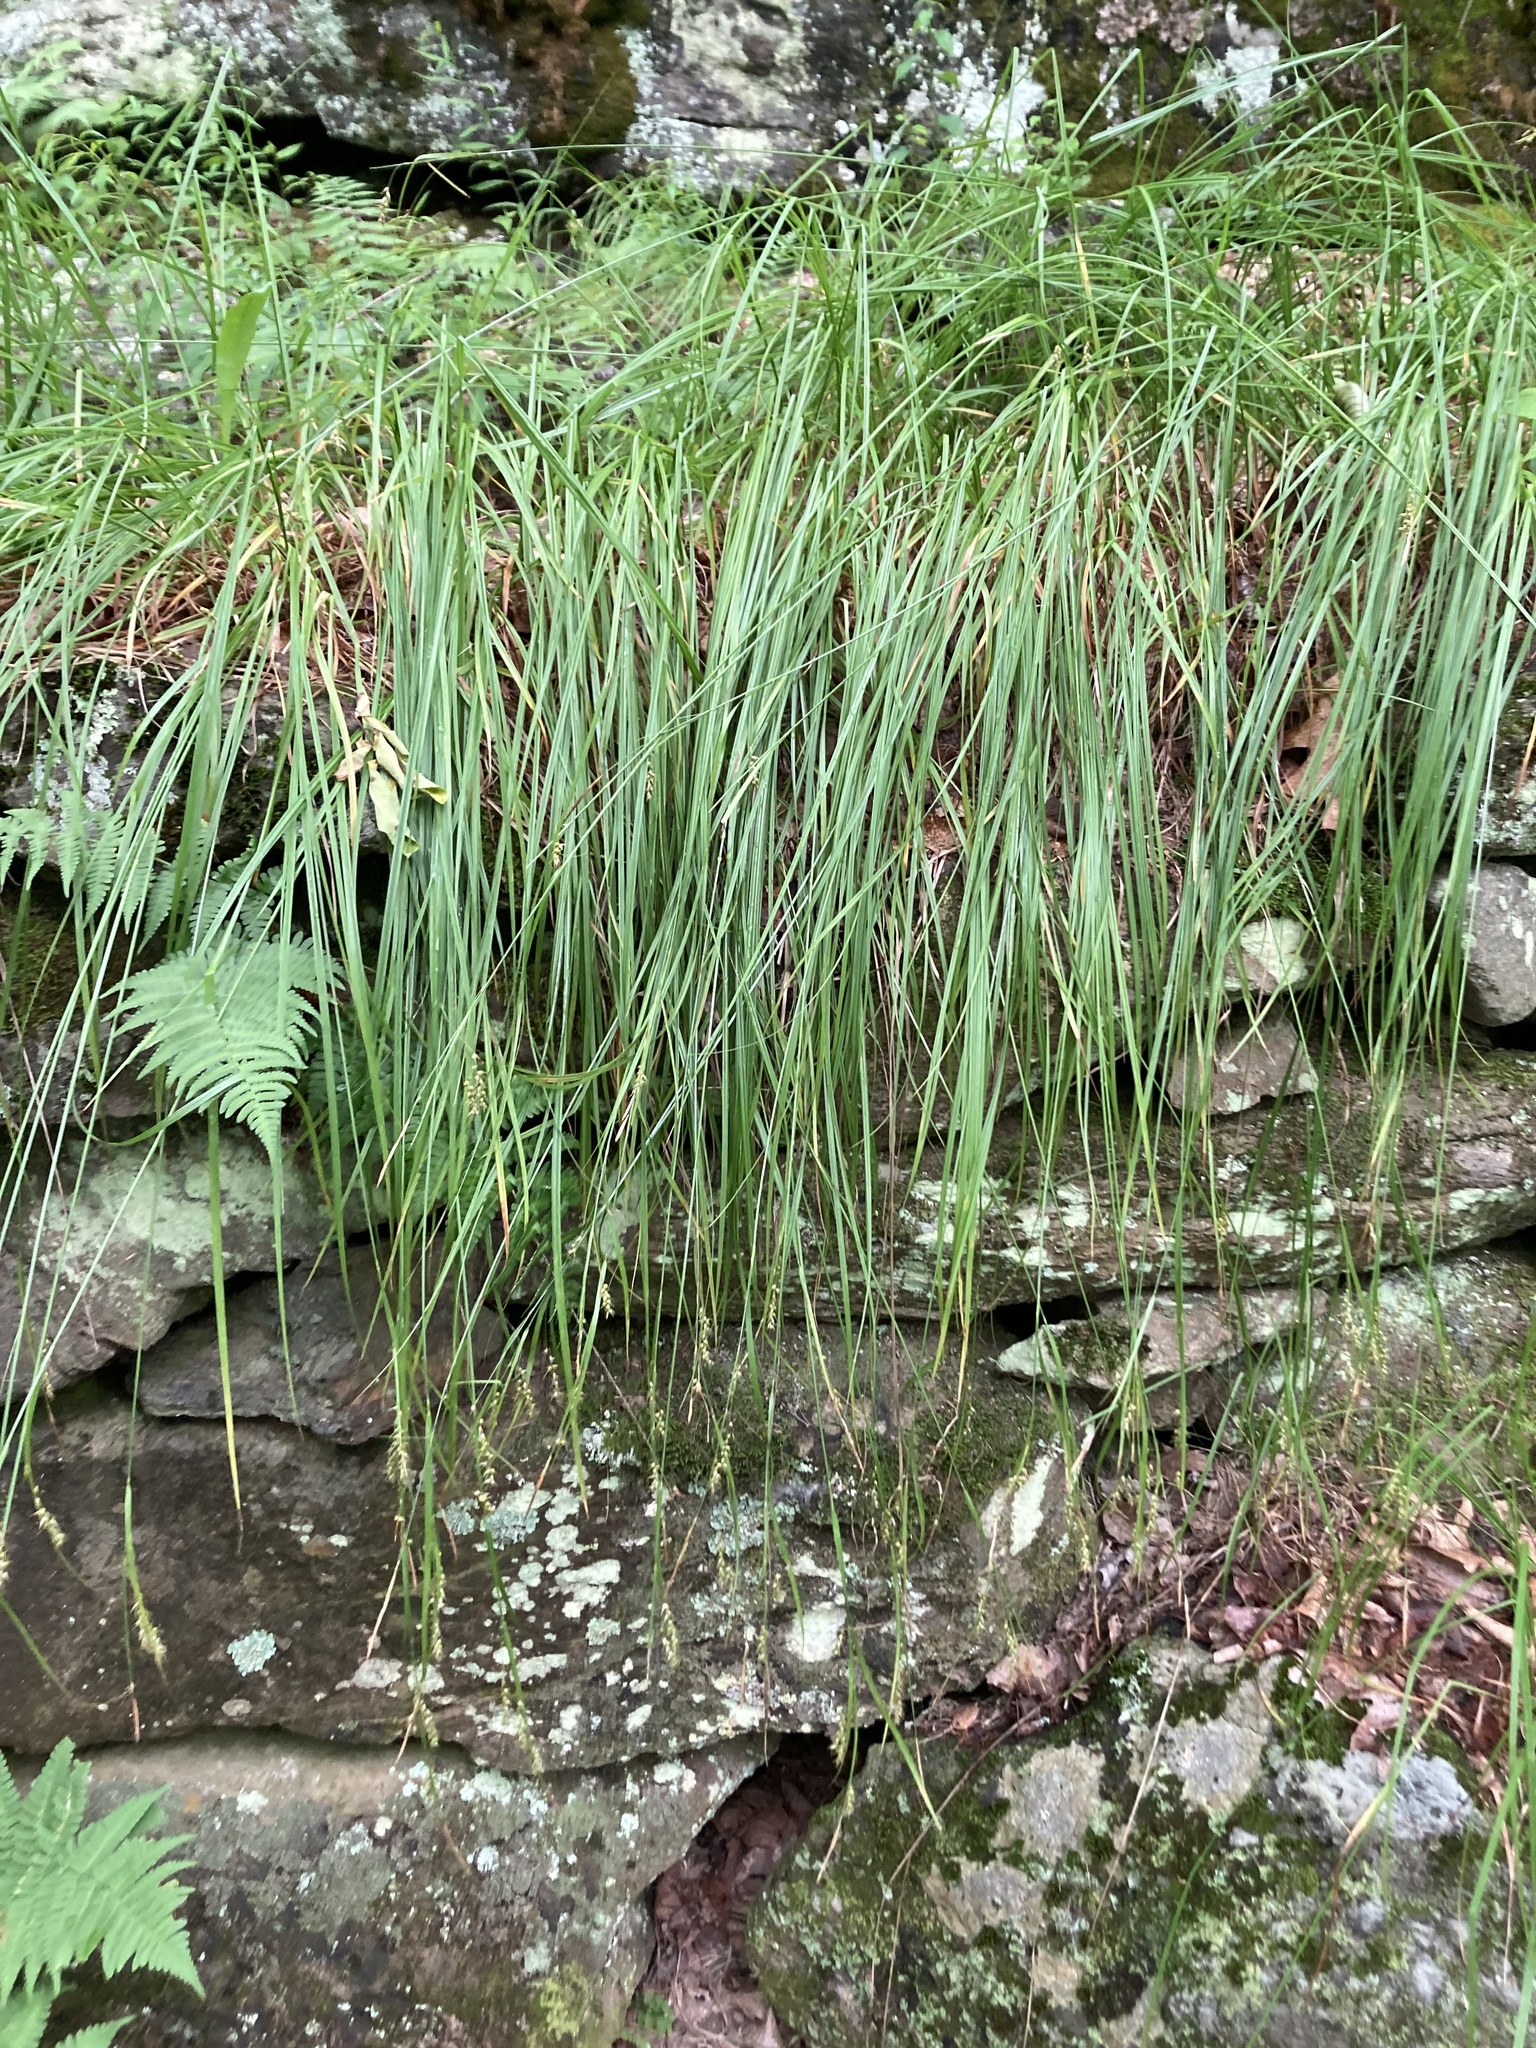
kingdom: Plantae
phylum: Tracheophyta
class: Liliopsida
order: Poales
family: Cyperaceae
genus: Carex
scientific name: Carex sprengelii
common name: Long-beaked sedge
